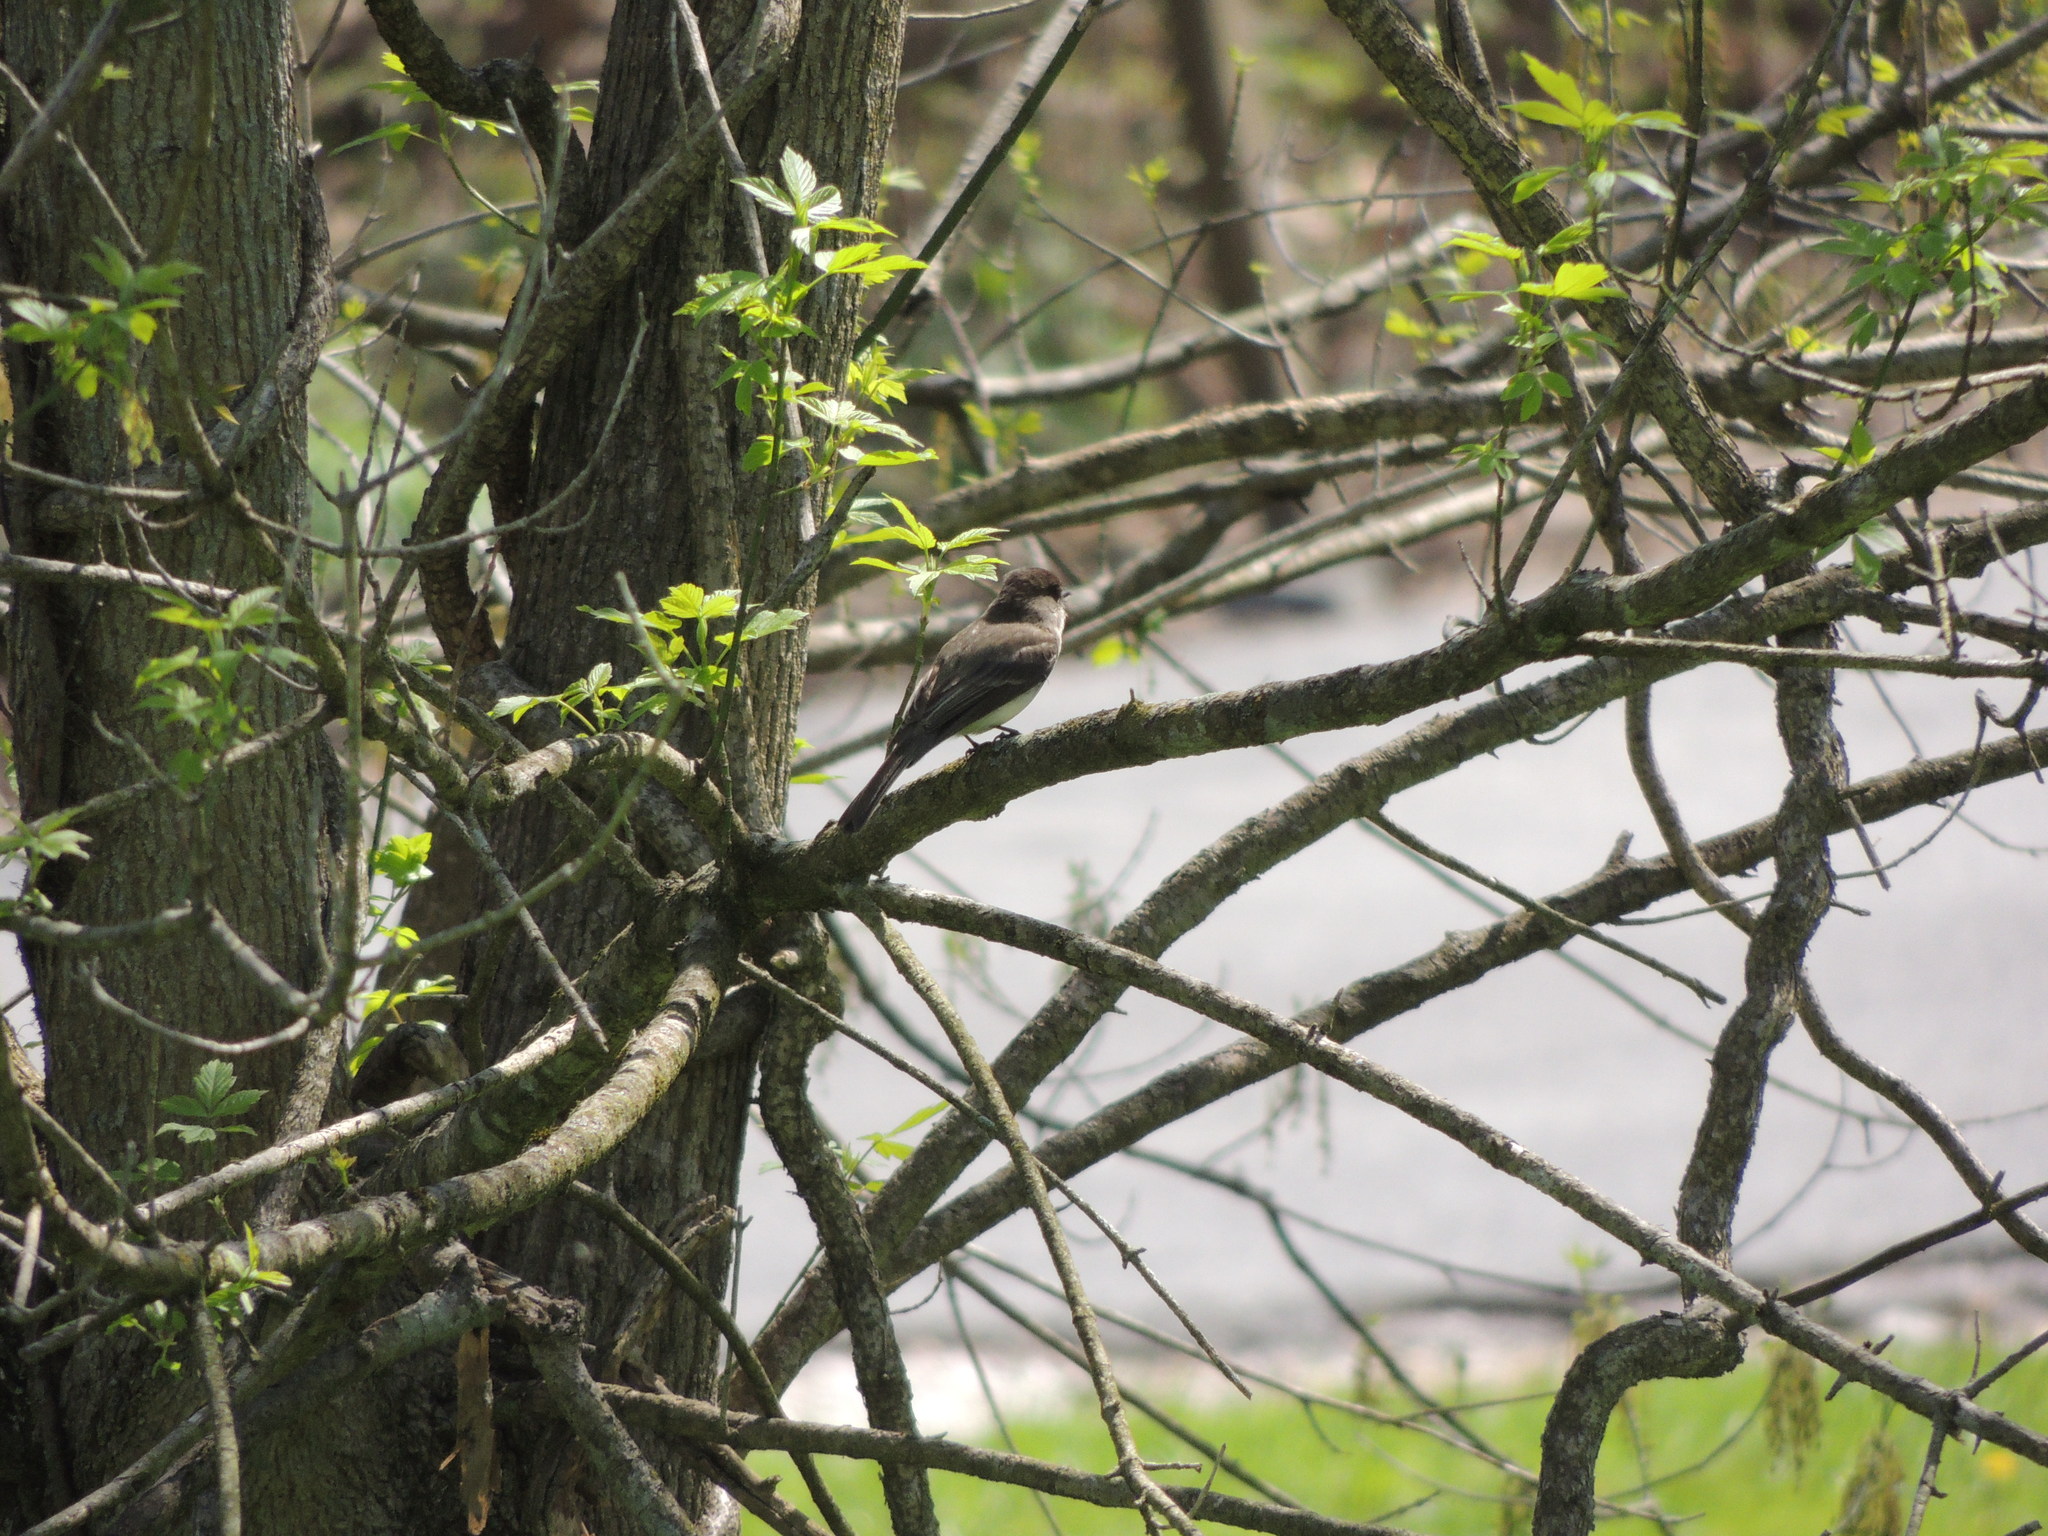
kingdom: Animalia
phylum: Chordata
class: Aves
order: Passeriformes
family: Tyrannidae
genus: Sayornis
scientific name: Sayornis phoebe
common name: Eastern phoebe
